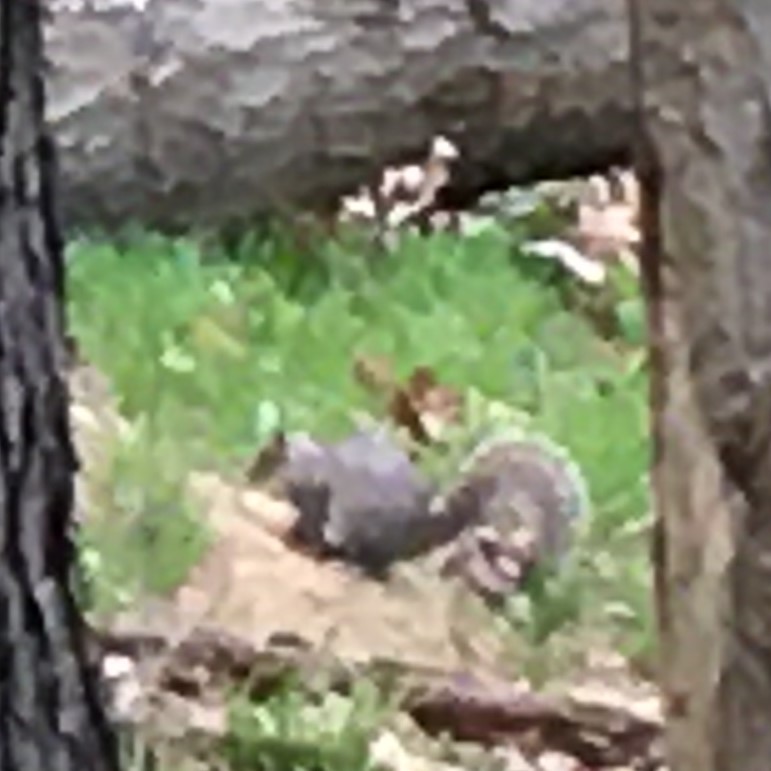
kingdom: Animalia
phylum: Chordata
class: Mammalia
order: Rodentia
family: Sciuridae
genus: Sciurus
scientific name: Sciurus carolinensis
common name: Eastern gray squirrel
